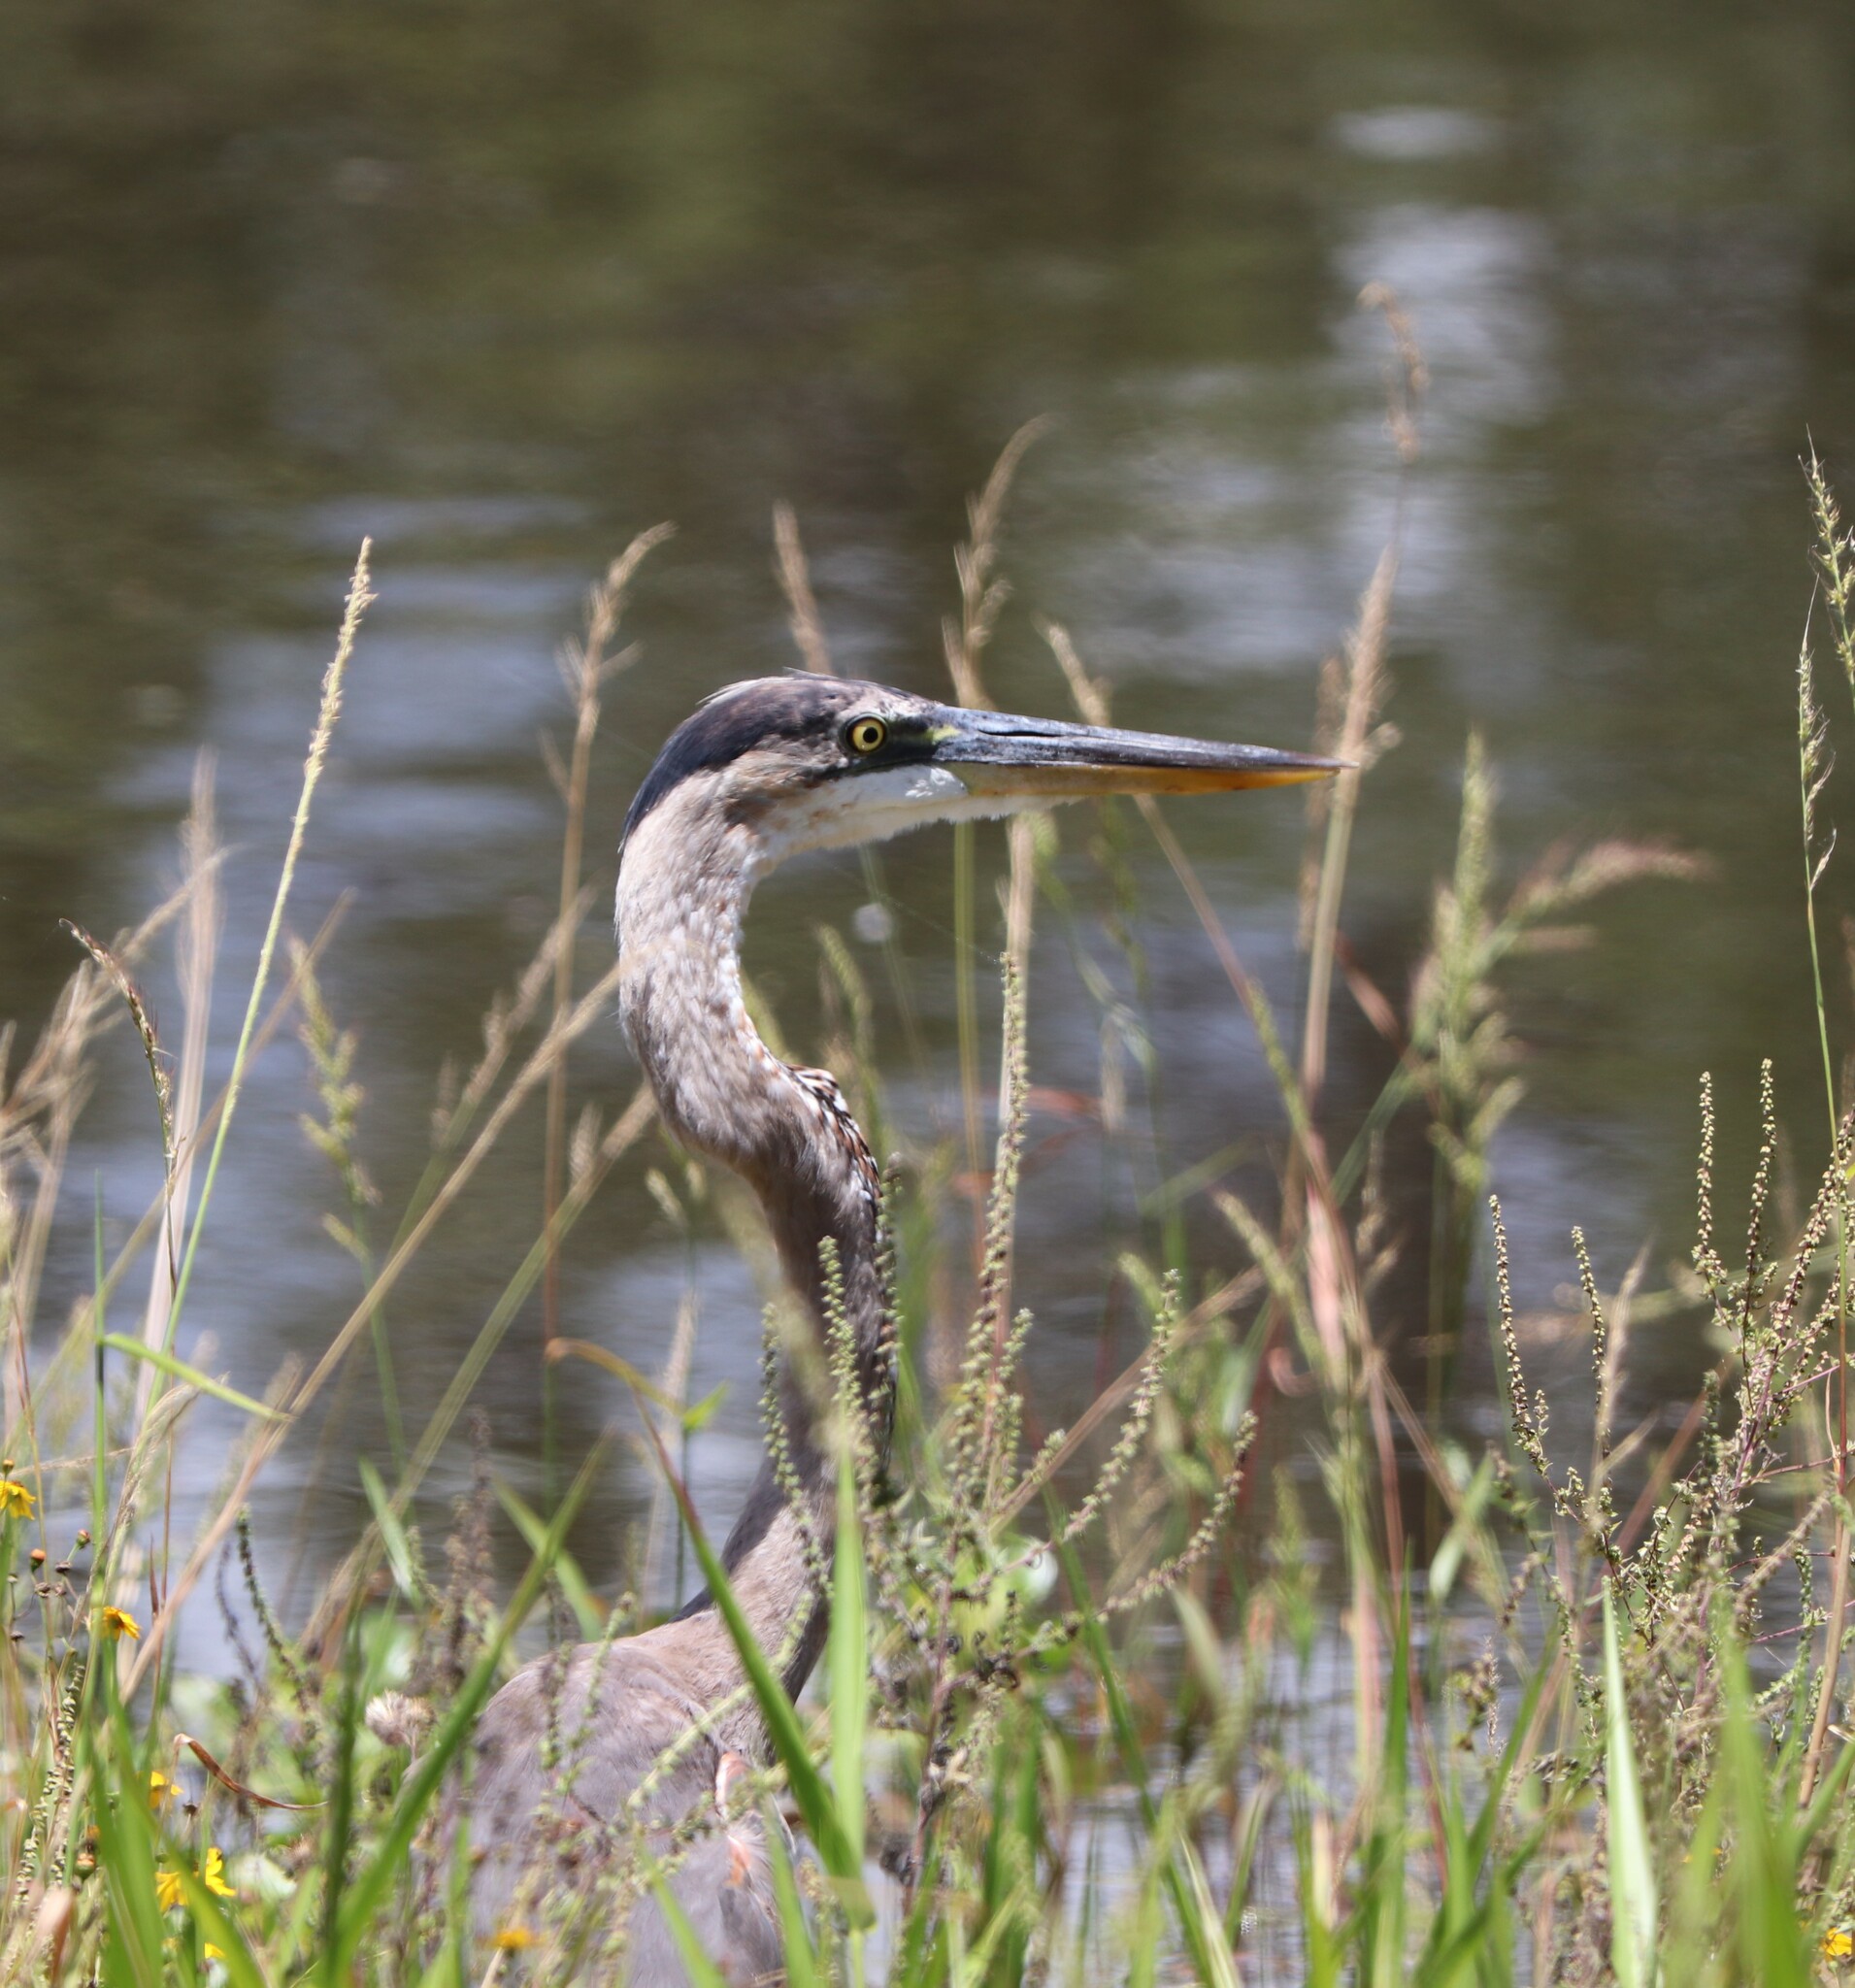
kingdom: Animalia
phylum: Chordata
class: Aves
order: Pelecaniformes
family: Ardeidae
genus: Ardea
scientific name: Ardea herodias
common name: Great blue heron
